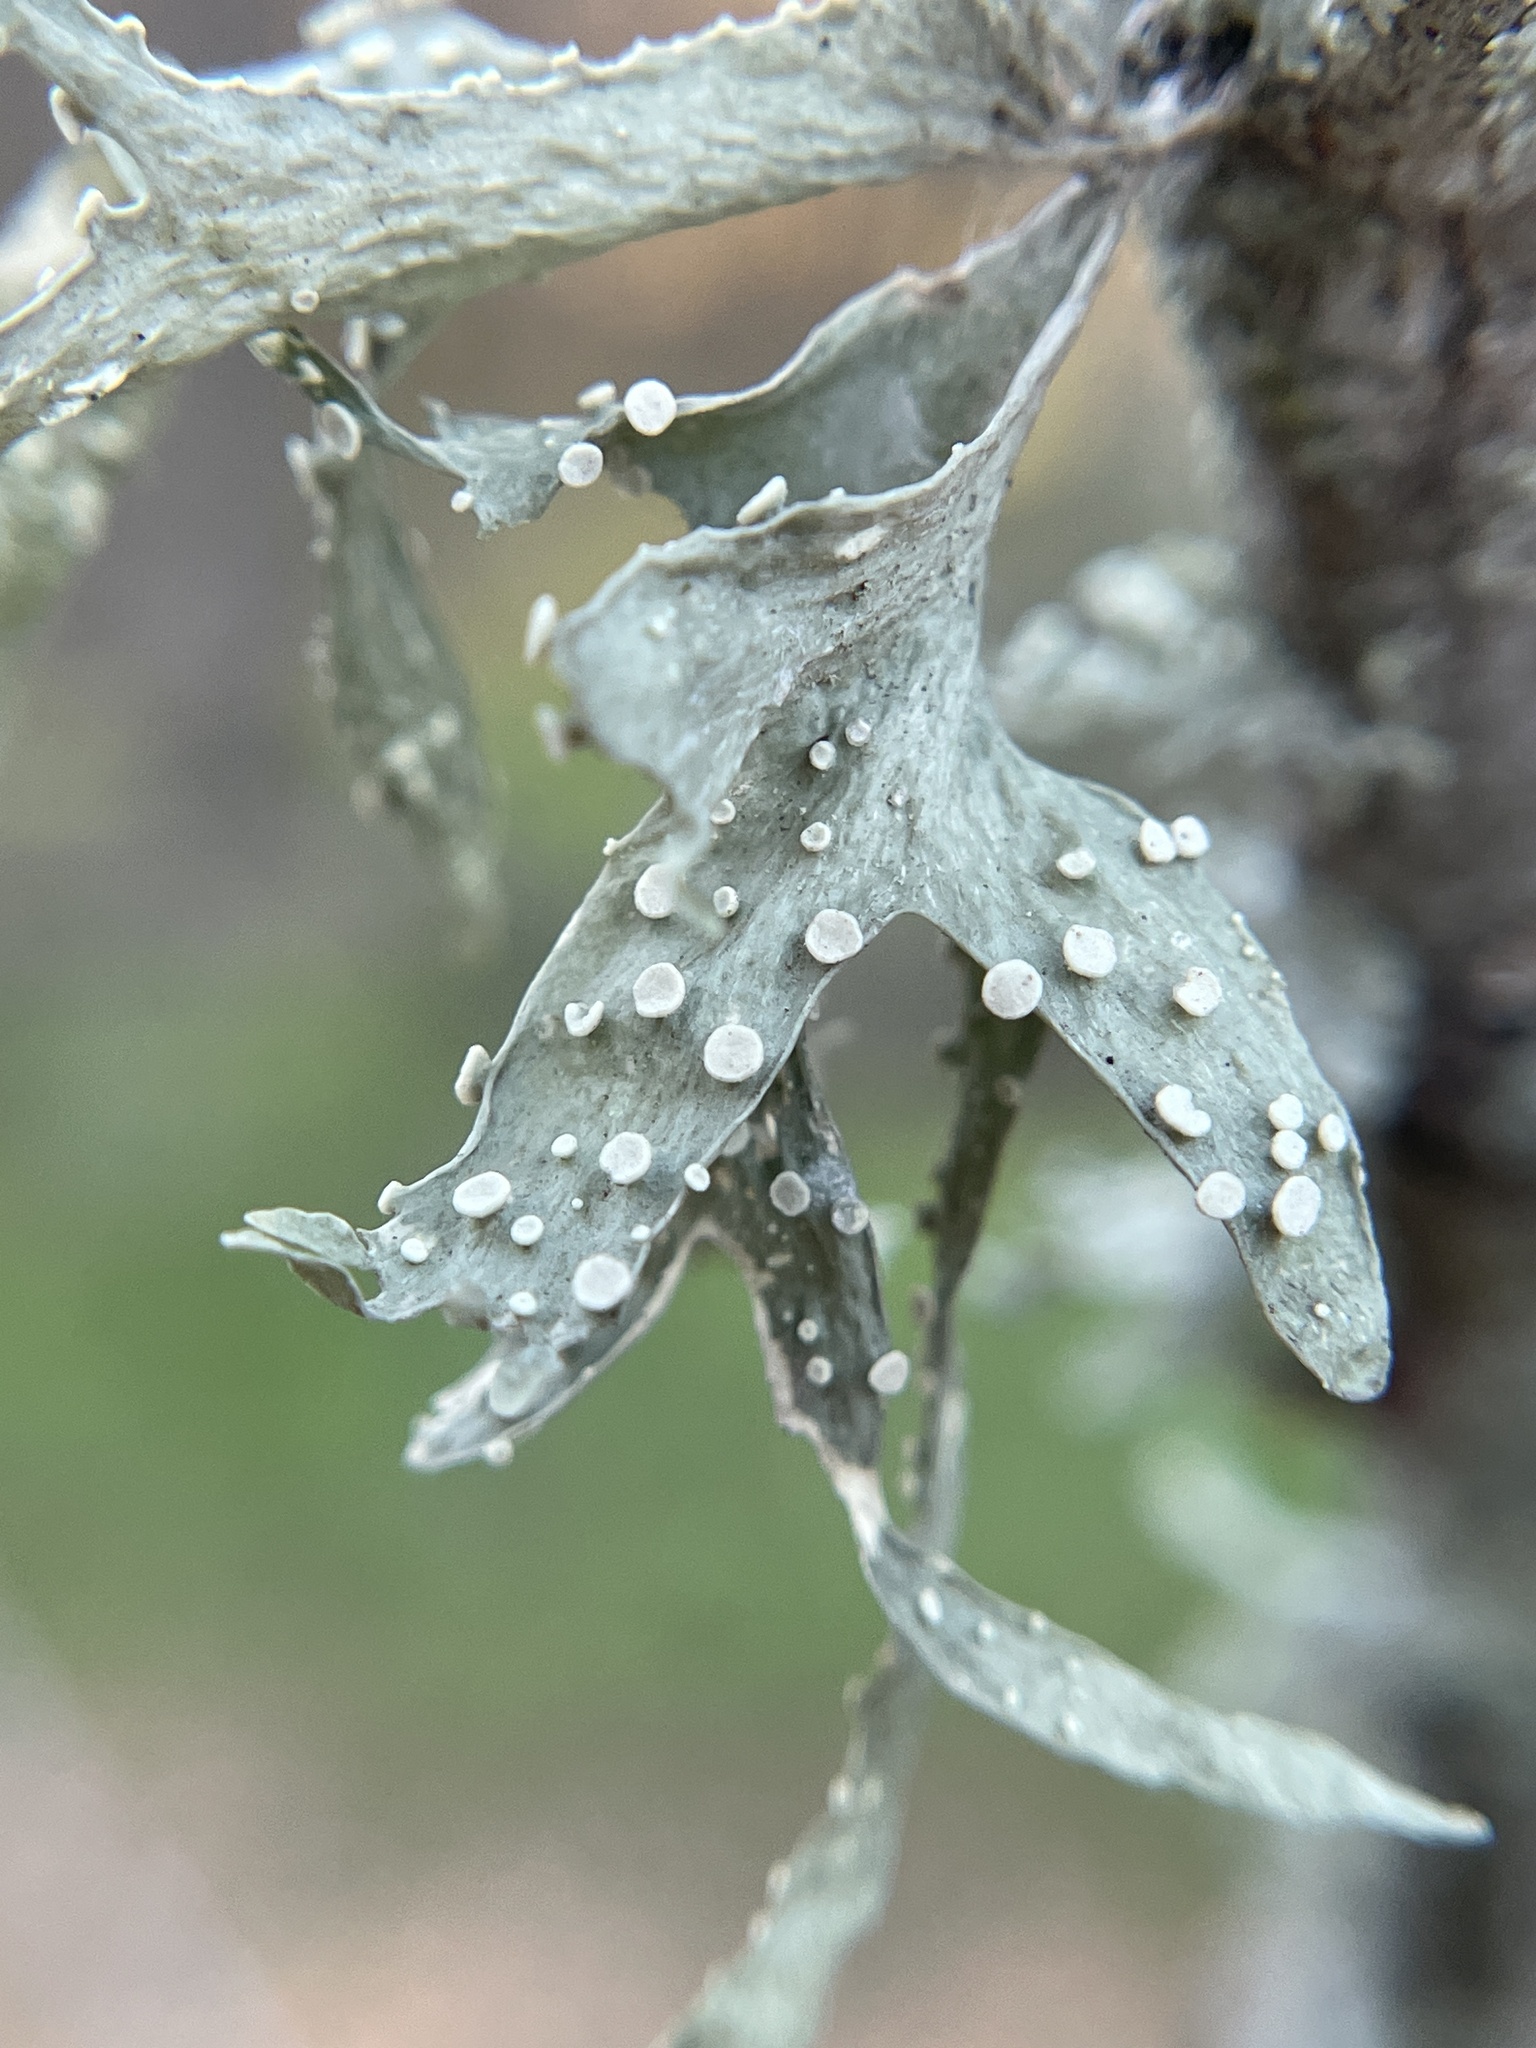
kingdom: Fungi
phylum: Ascomycota
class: Lecanoromycetes
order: Lecanorales
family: Ramalinaceae
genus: Ramalina
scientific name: Ramalina celastri
